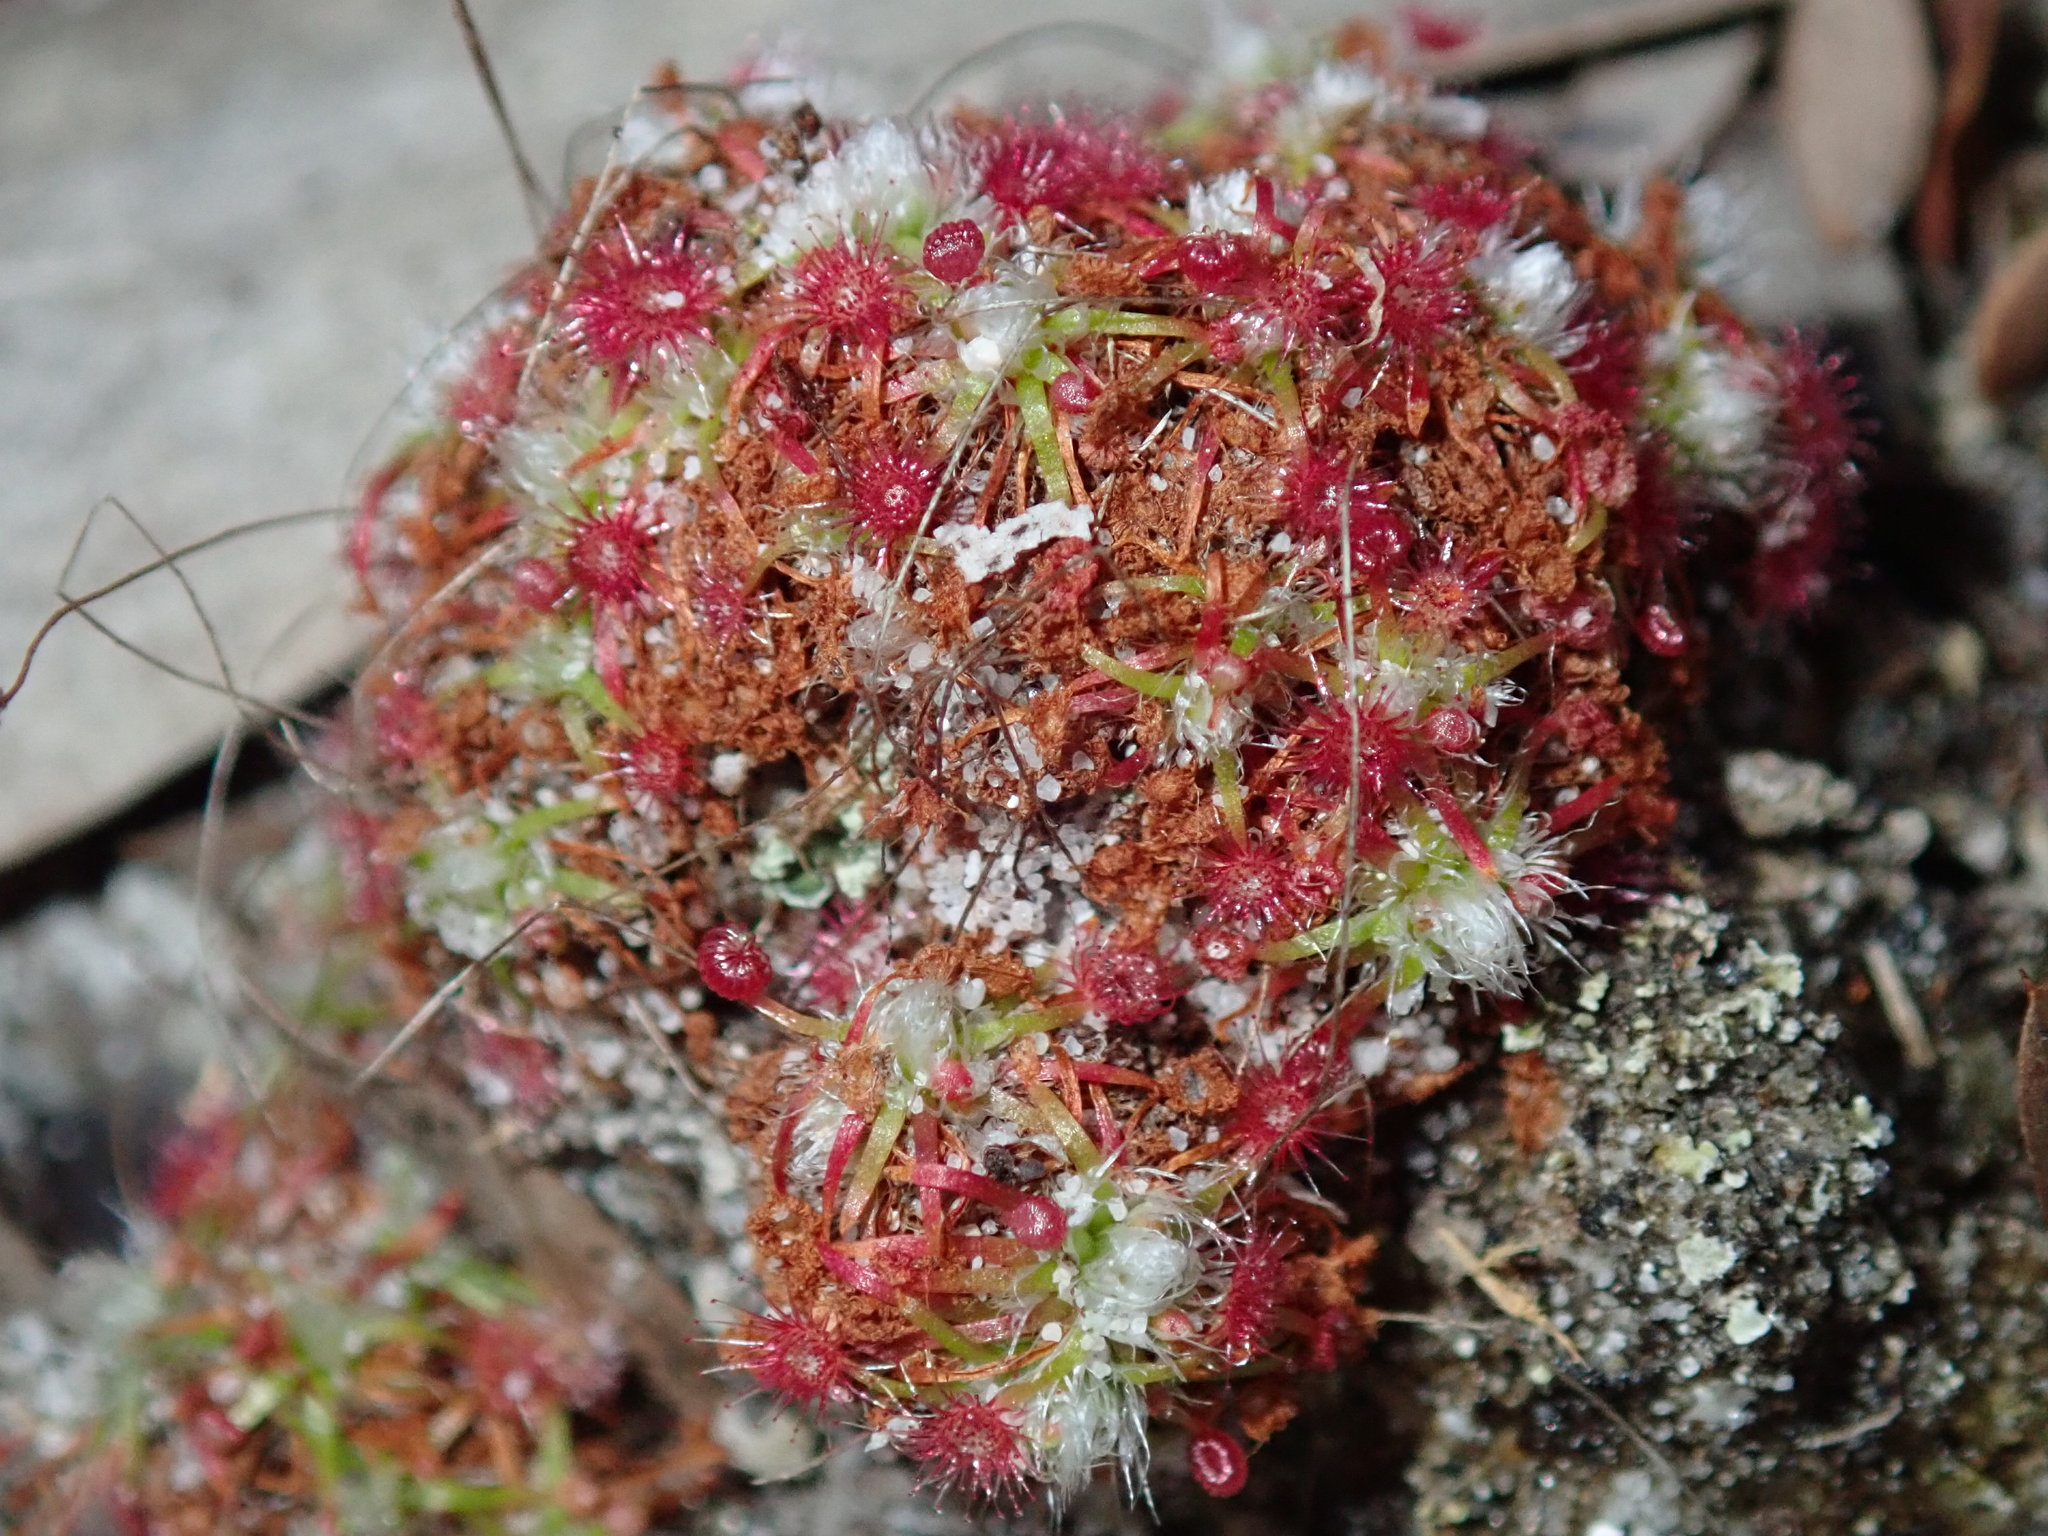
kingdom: Plantae
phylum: Tracheophyta
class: Magnoliopsida
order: Caryophyllales
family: Droseraceae
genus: Drosera
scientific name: Drosera pygmaea
